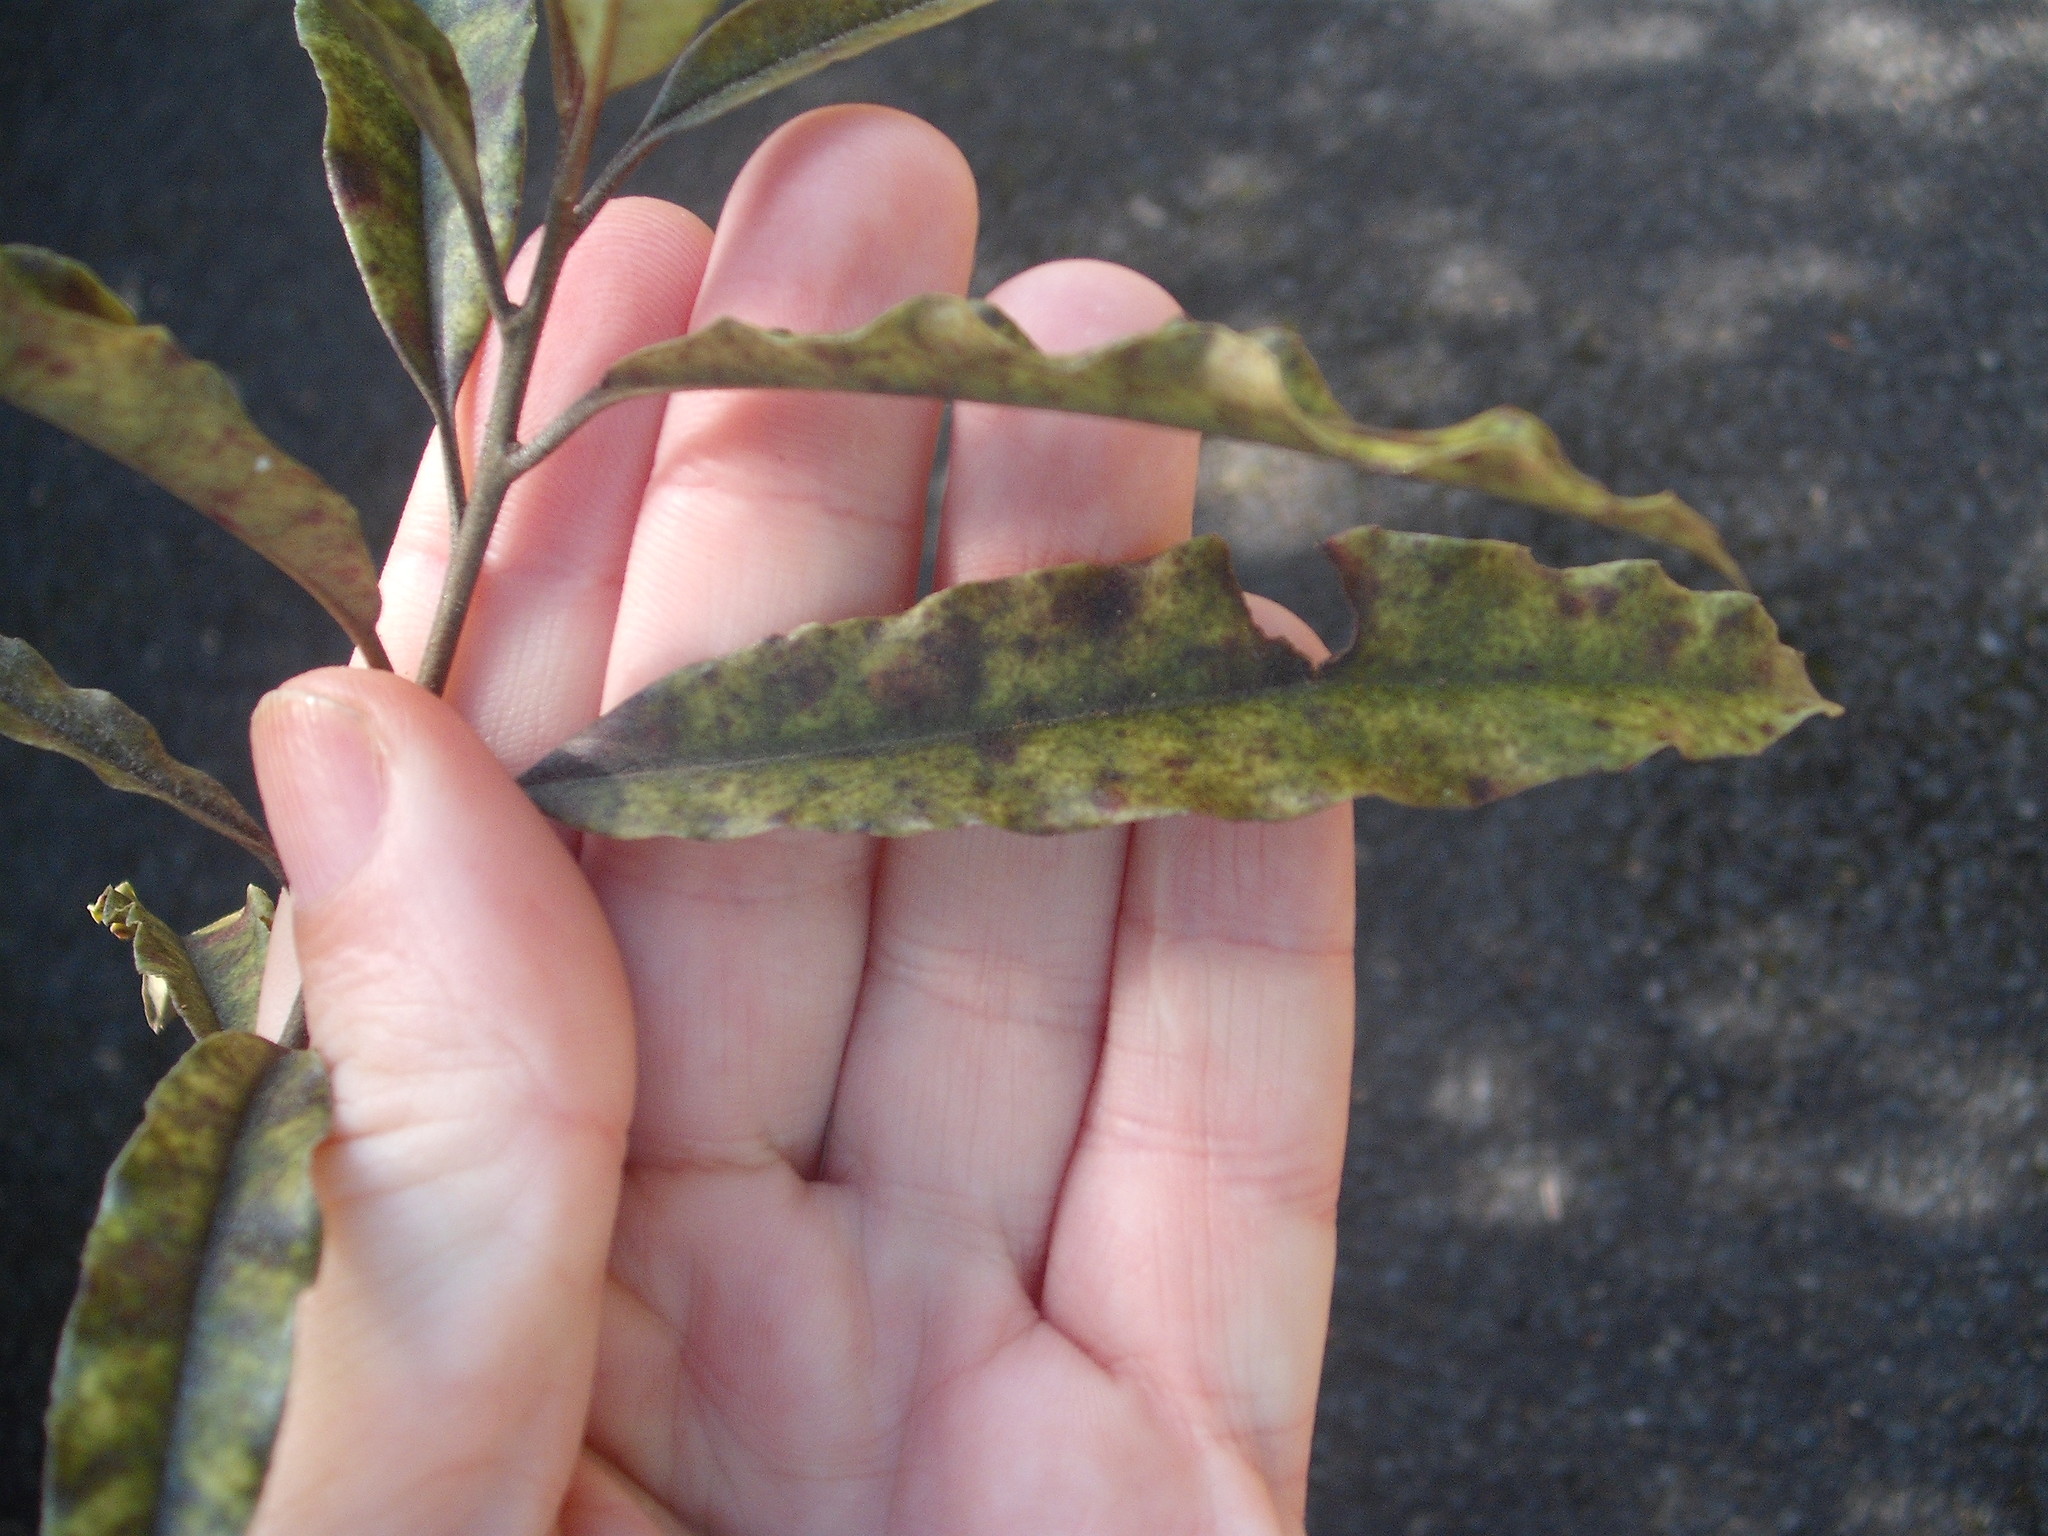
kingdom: Plantae
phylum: Tracheophyta
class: Magnoliopsida
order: Paracryphiales
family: Paracryphiaceae
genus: Quintinia
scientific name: Quintinia serrata
